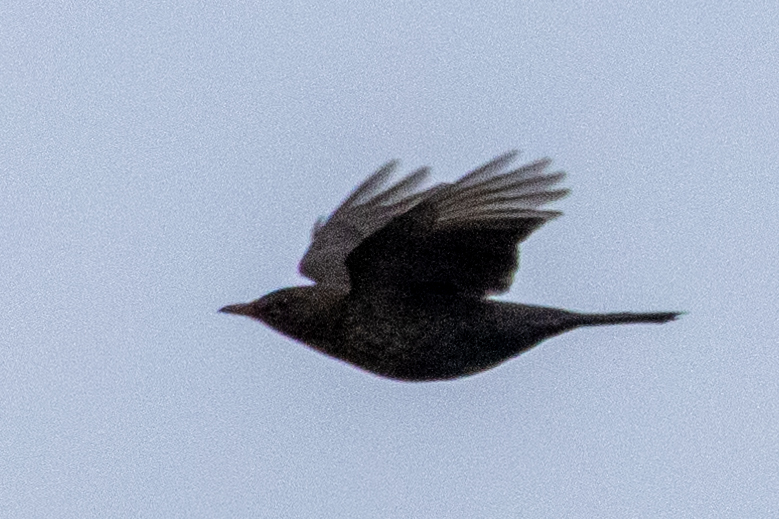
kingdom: Animalia
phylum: Chordata
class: Aves
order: Passeriformes
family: Turdidae
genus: Turdus
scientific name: Turdus merula
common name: Common blackbird
